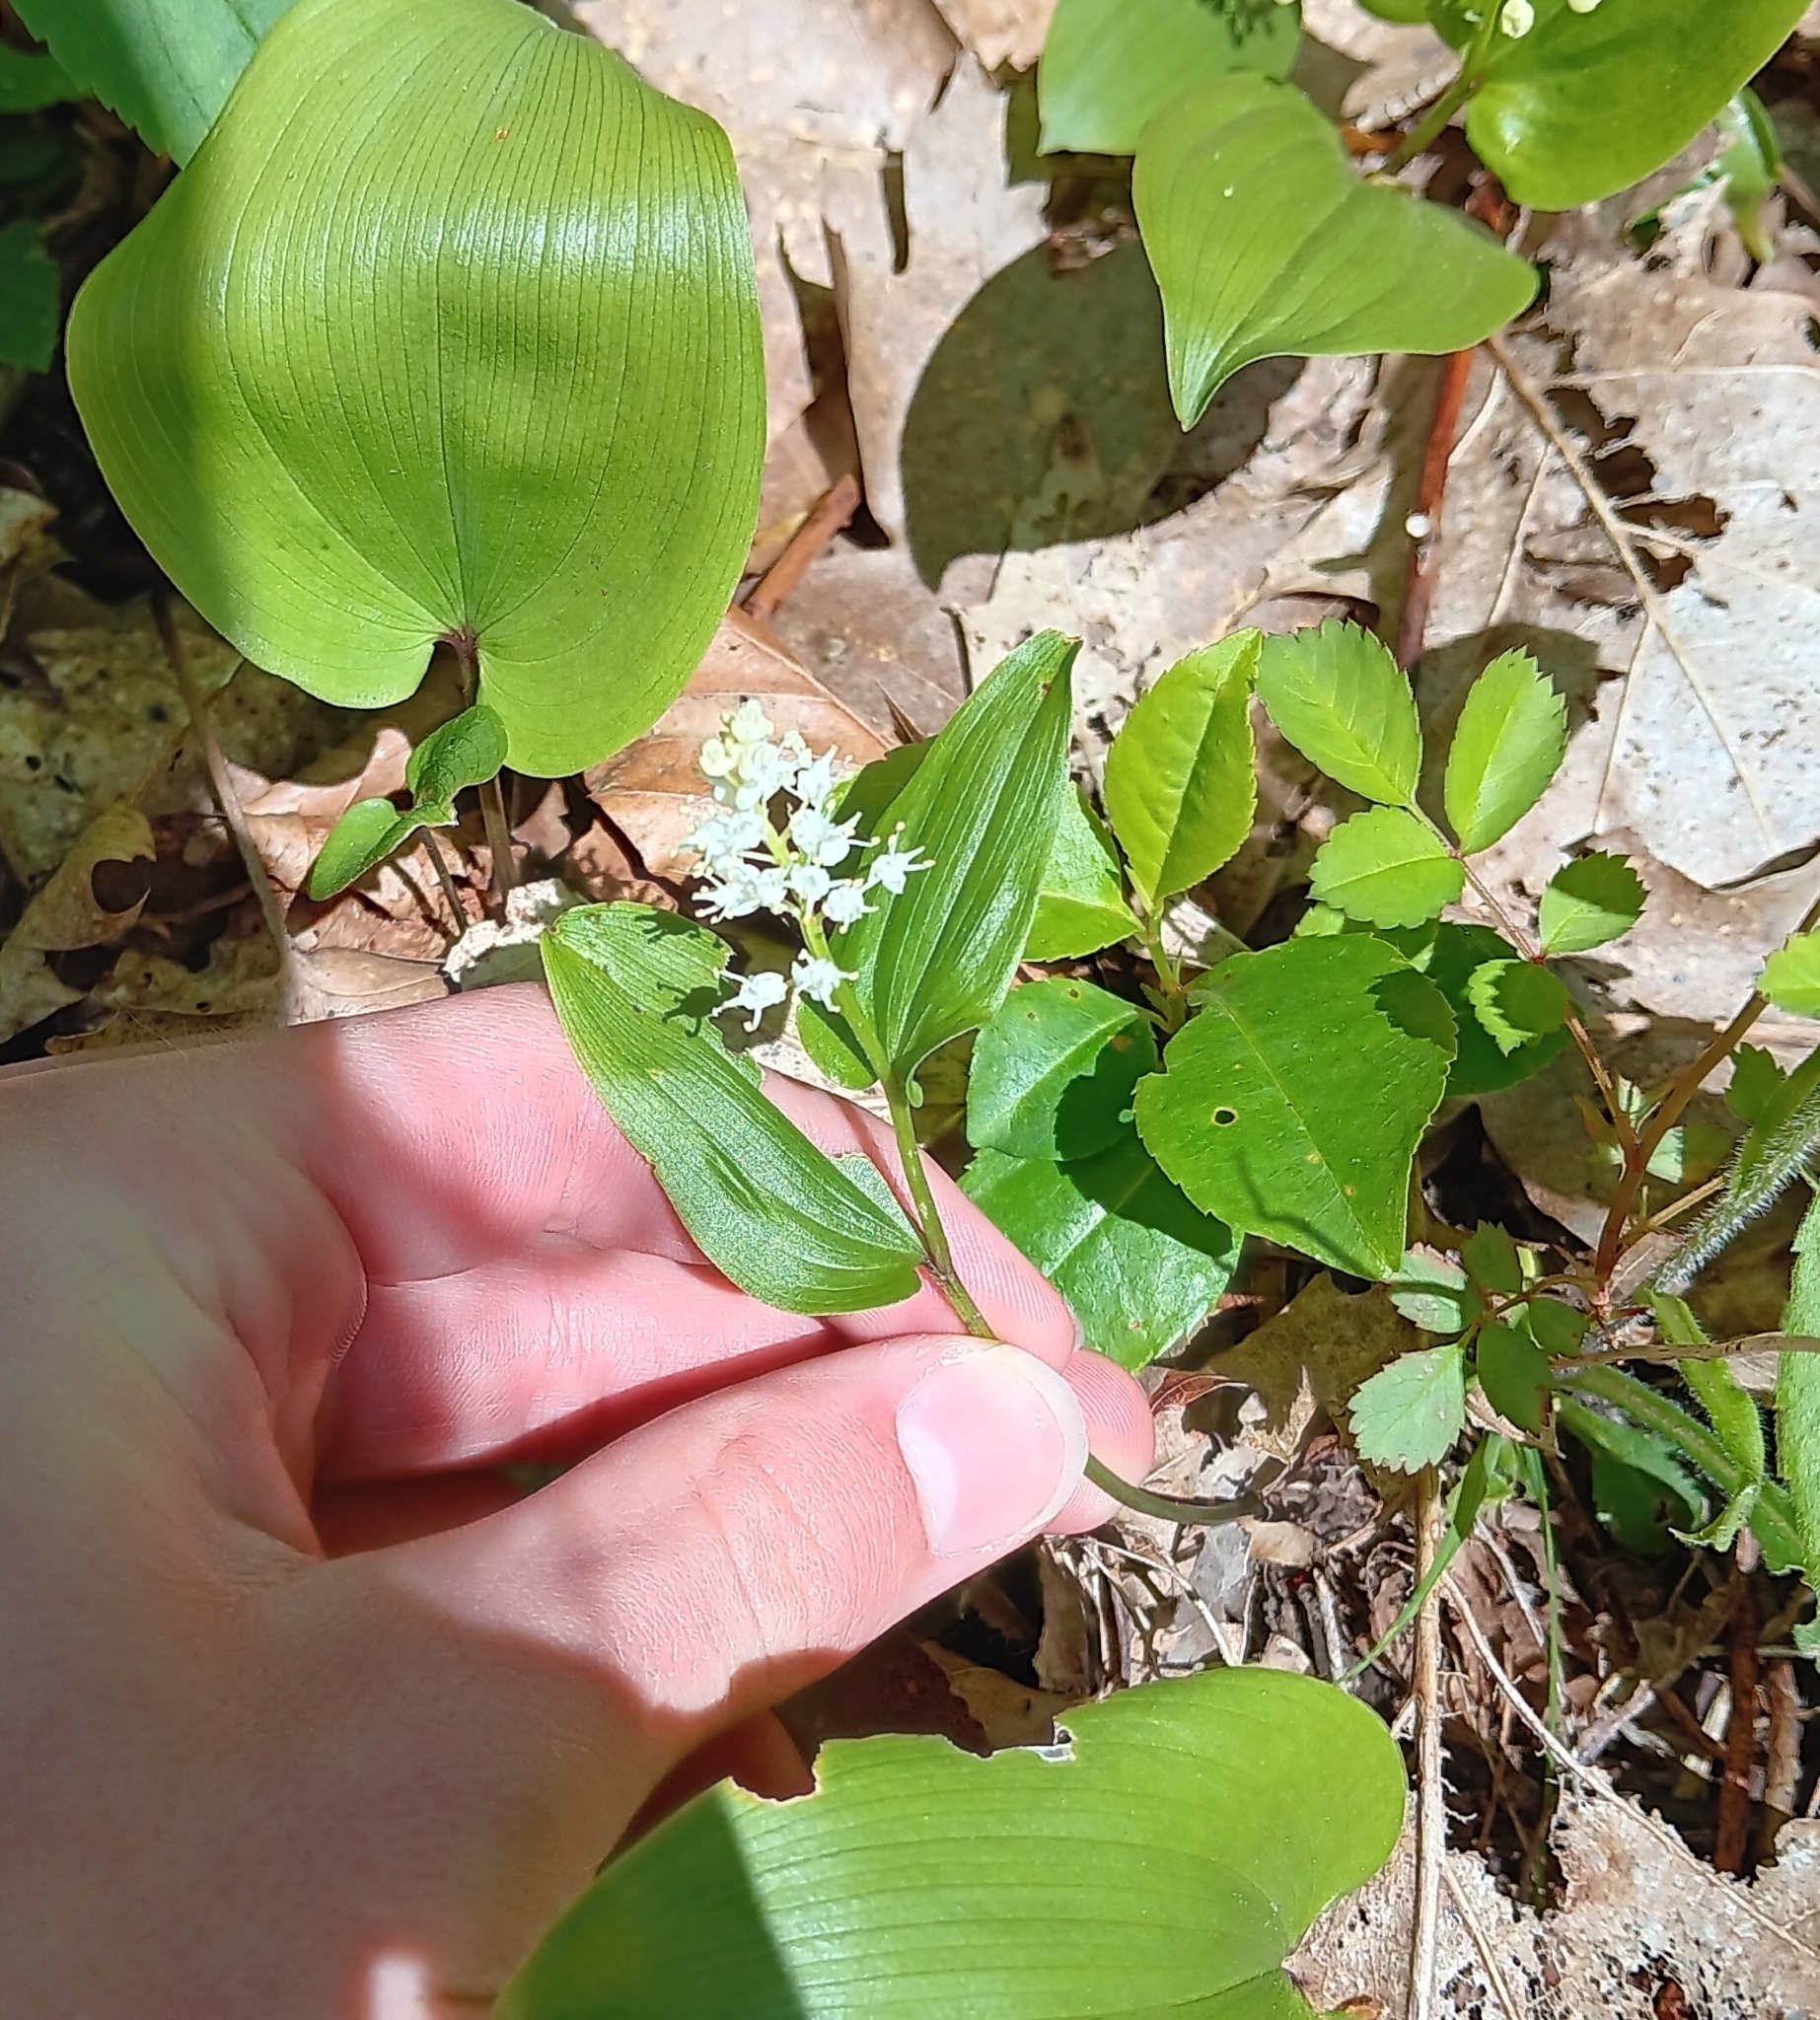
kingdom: Plantae
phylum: Tracheophyta
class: Liliopsida
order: Asparagales
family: Asparagaceae
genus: Maianthemum
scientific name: Maianthemum canadense
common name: False lily-of-the-valley
